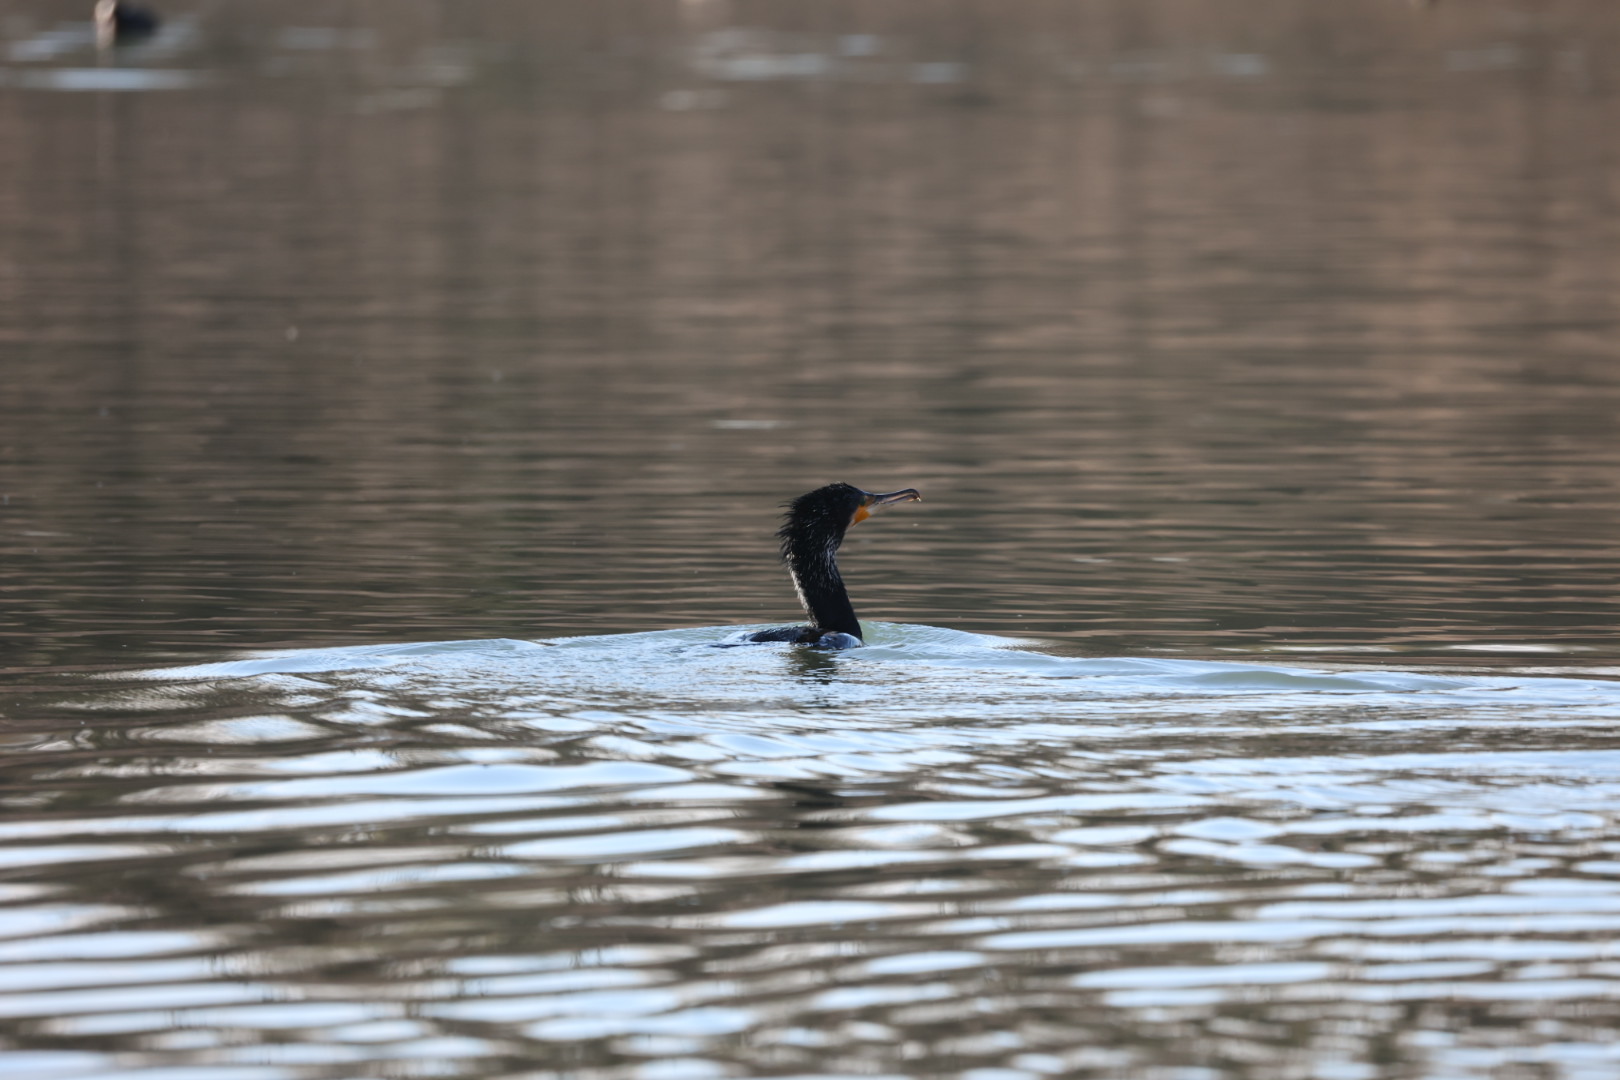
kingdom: Animalia
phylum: Chordata
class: Aves
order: Suliformes
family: Phalacrocoracidae
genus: Phalacrocorax
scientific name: Phalacrocorax carbo
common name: Great cormorant
